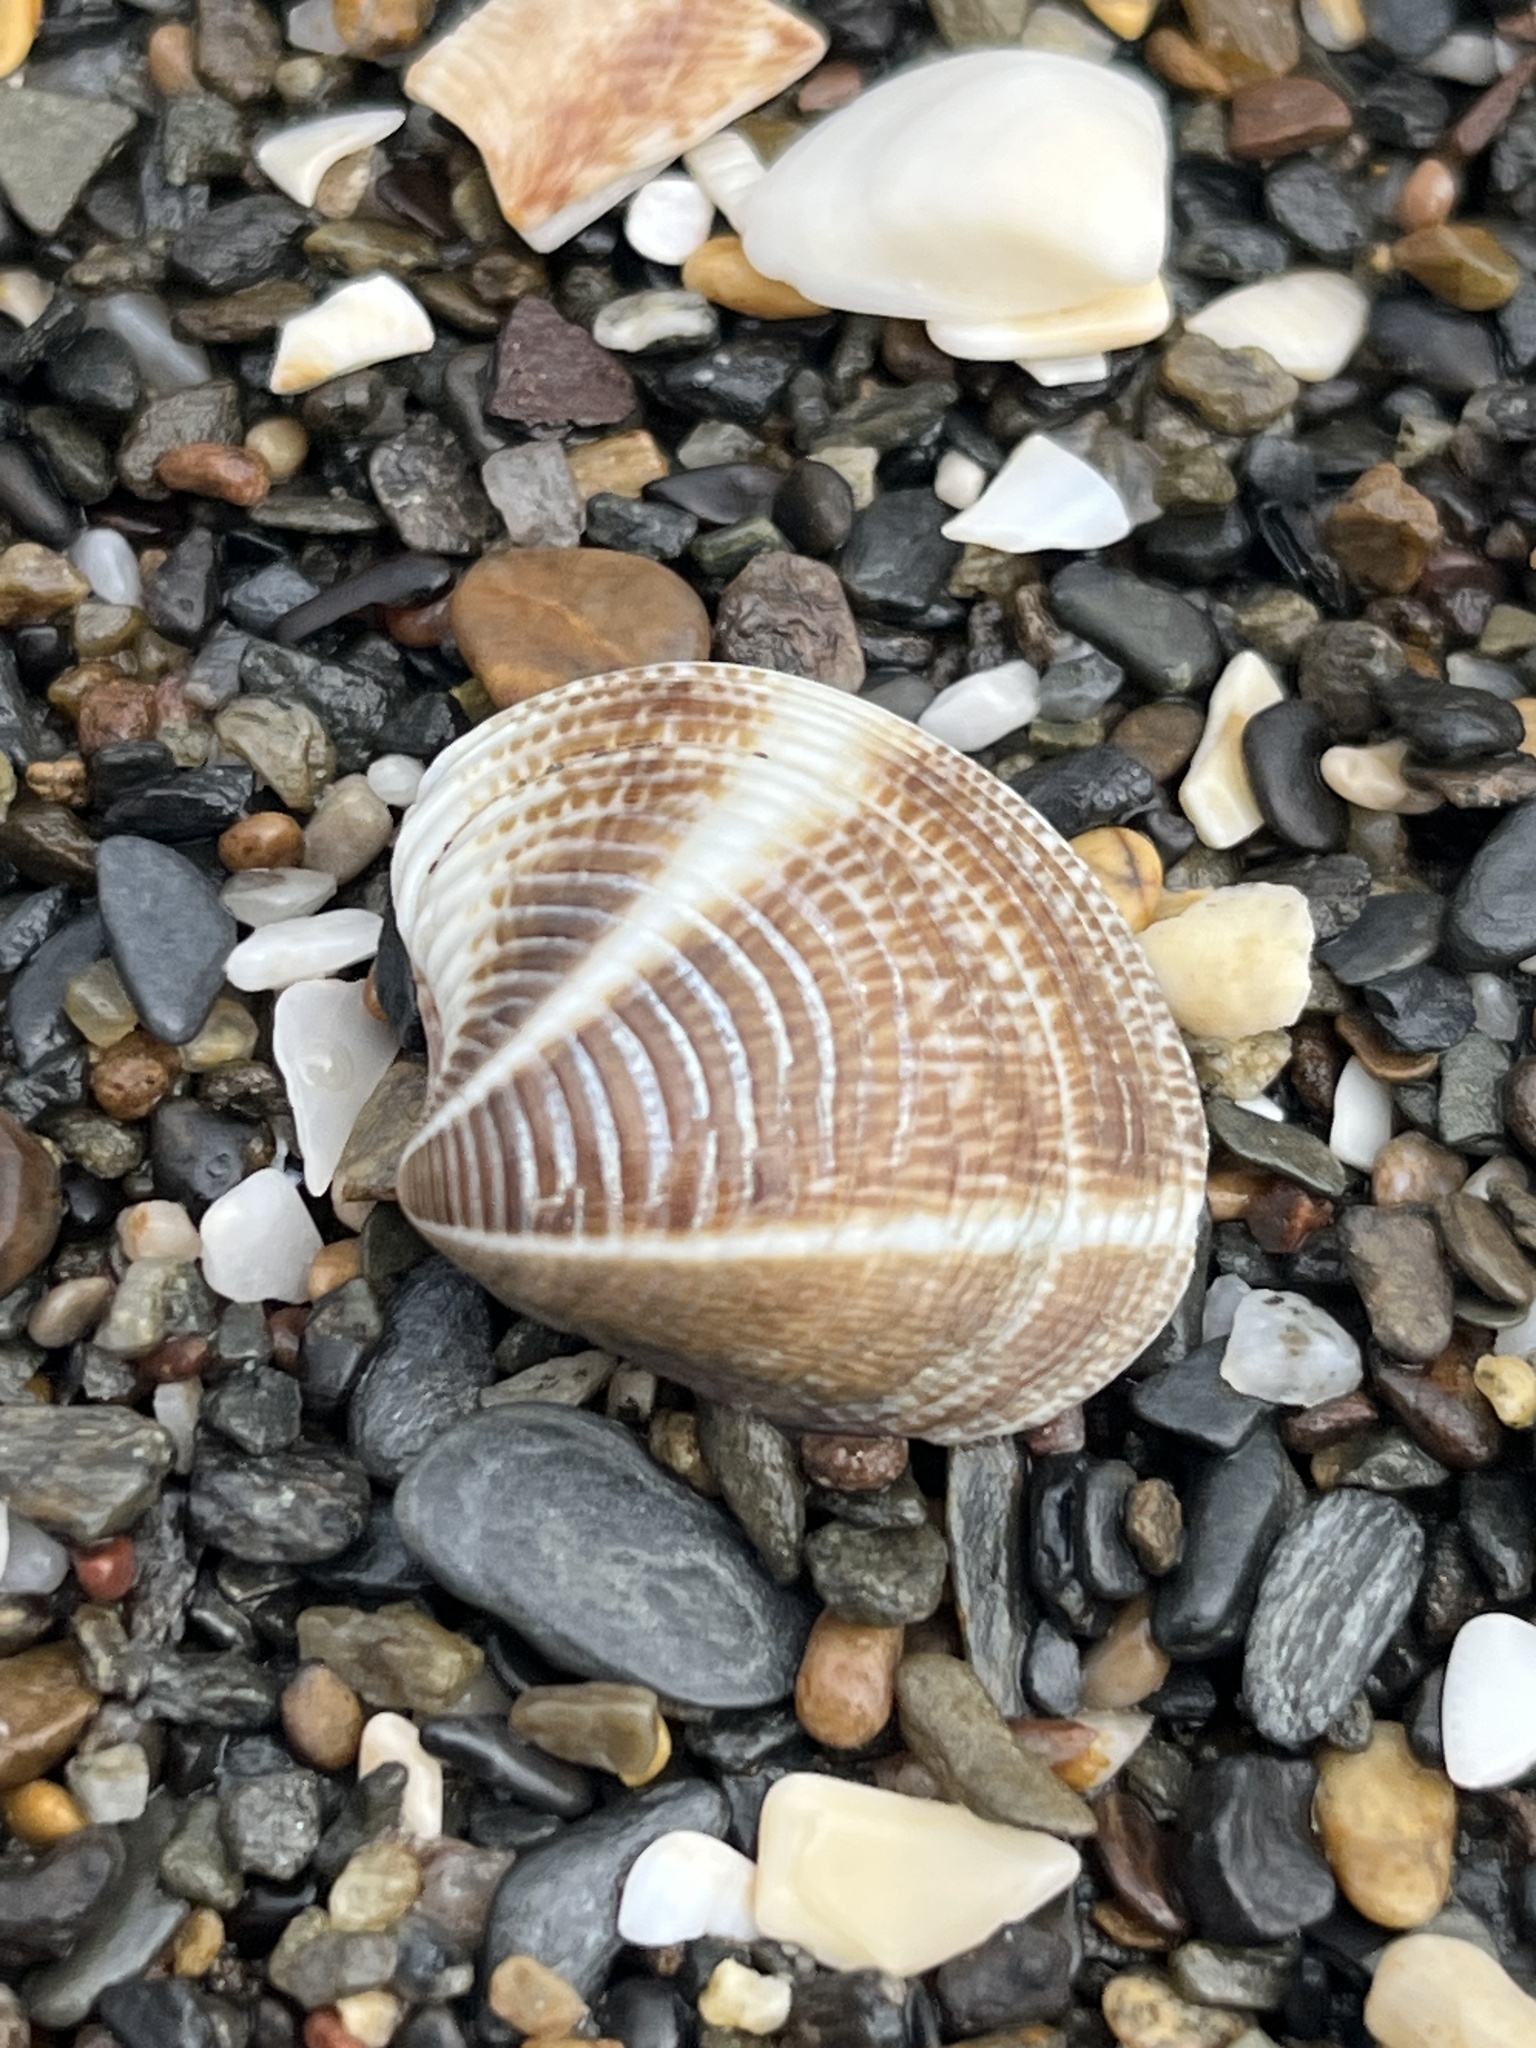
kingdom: Animalia
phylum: Mollusca
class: Bivalvia
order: Venerida
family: Veneridae
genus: Chamelea
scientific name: Chamelea gallina
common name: Chicken venus
